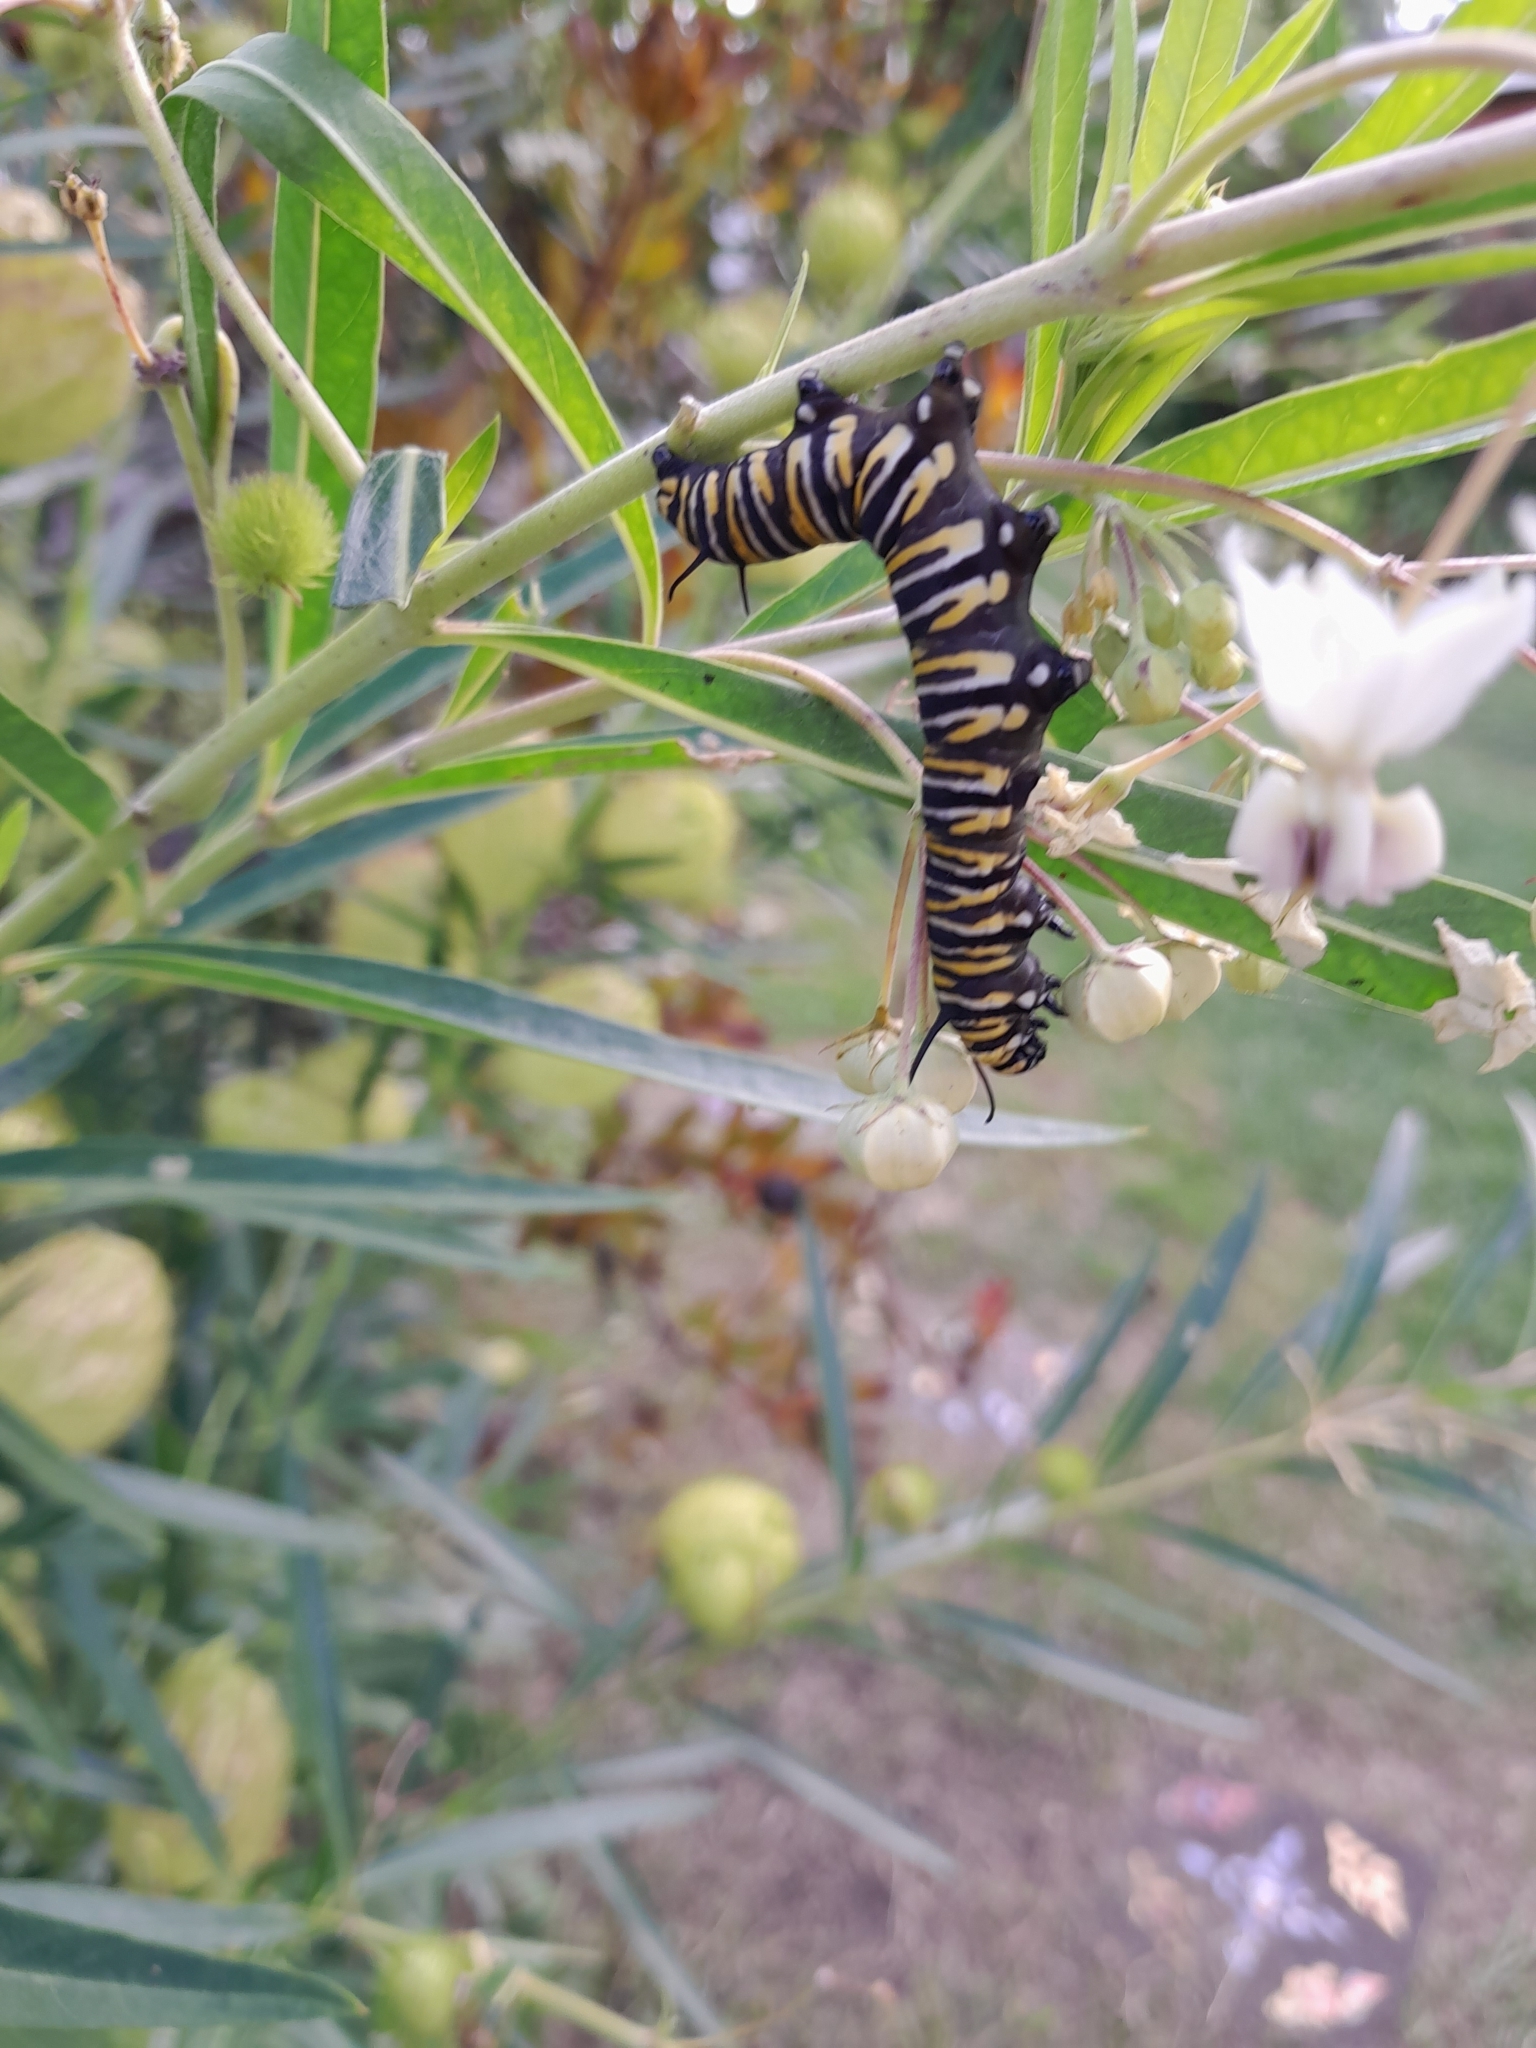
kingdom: Animalia
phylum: Arthropoda
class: Insecta
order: Lepidoptera
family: Nymphalidae
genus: Danaus
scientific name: Danaus plexippus
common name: Monarch
